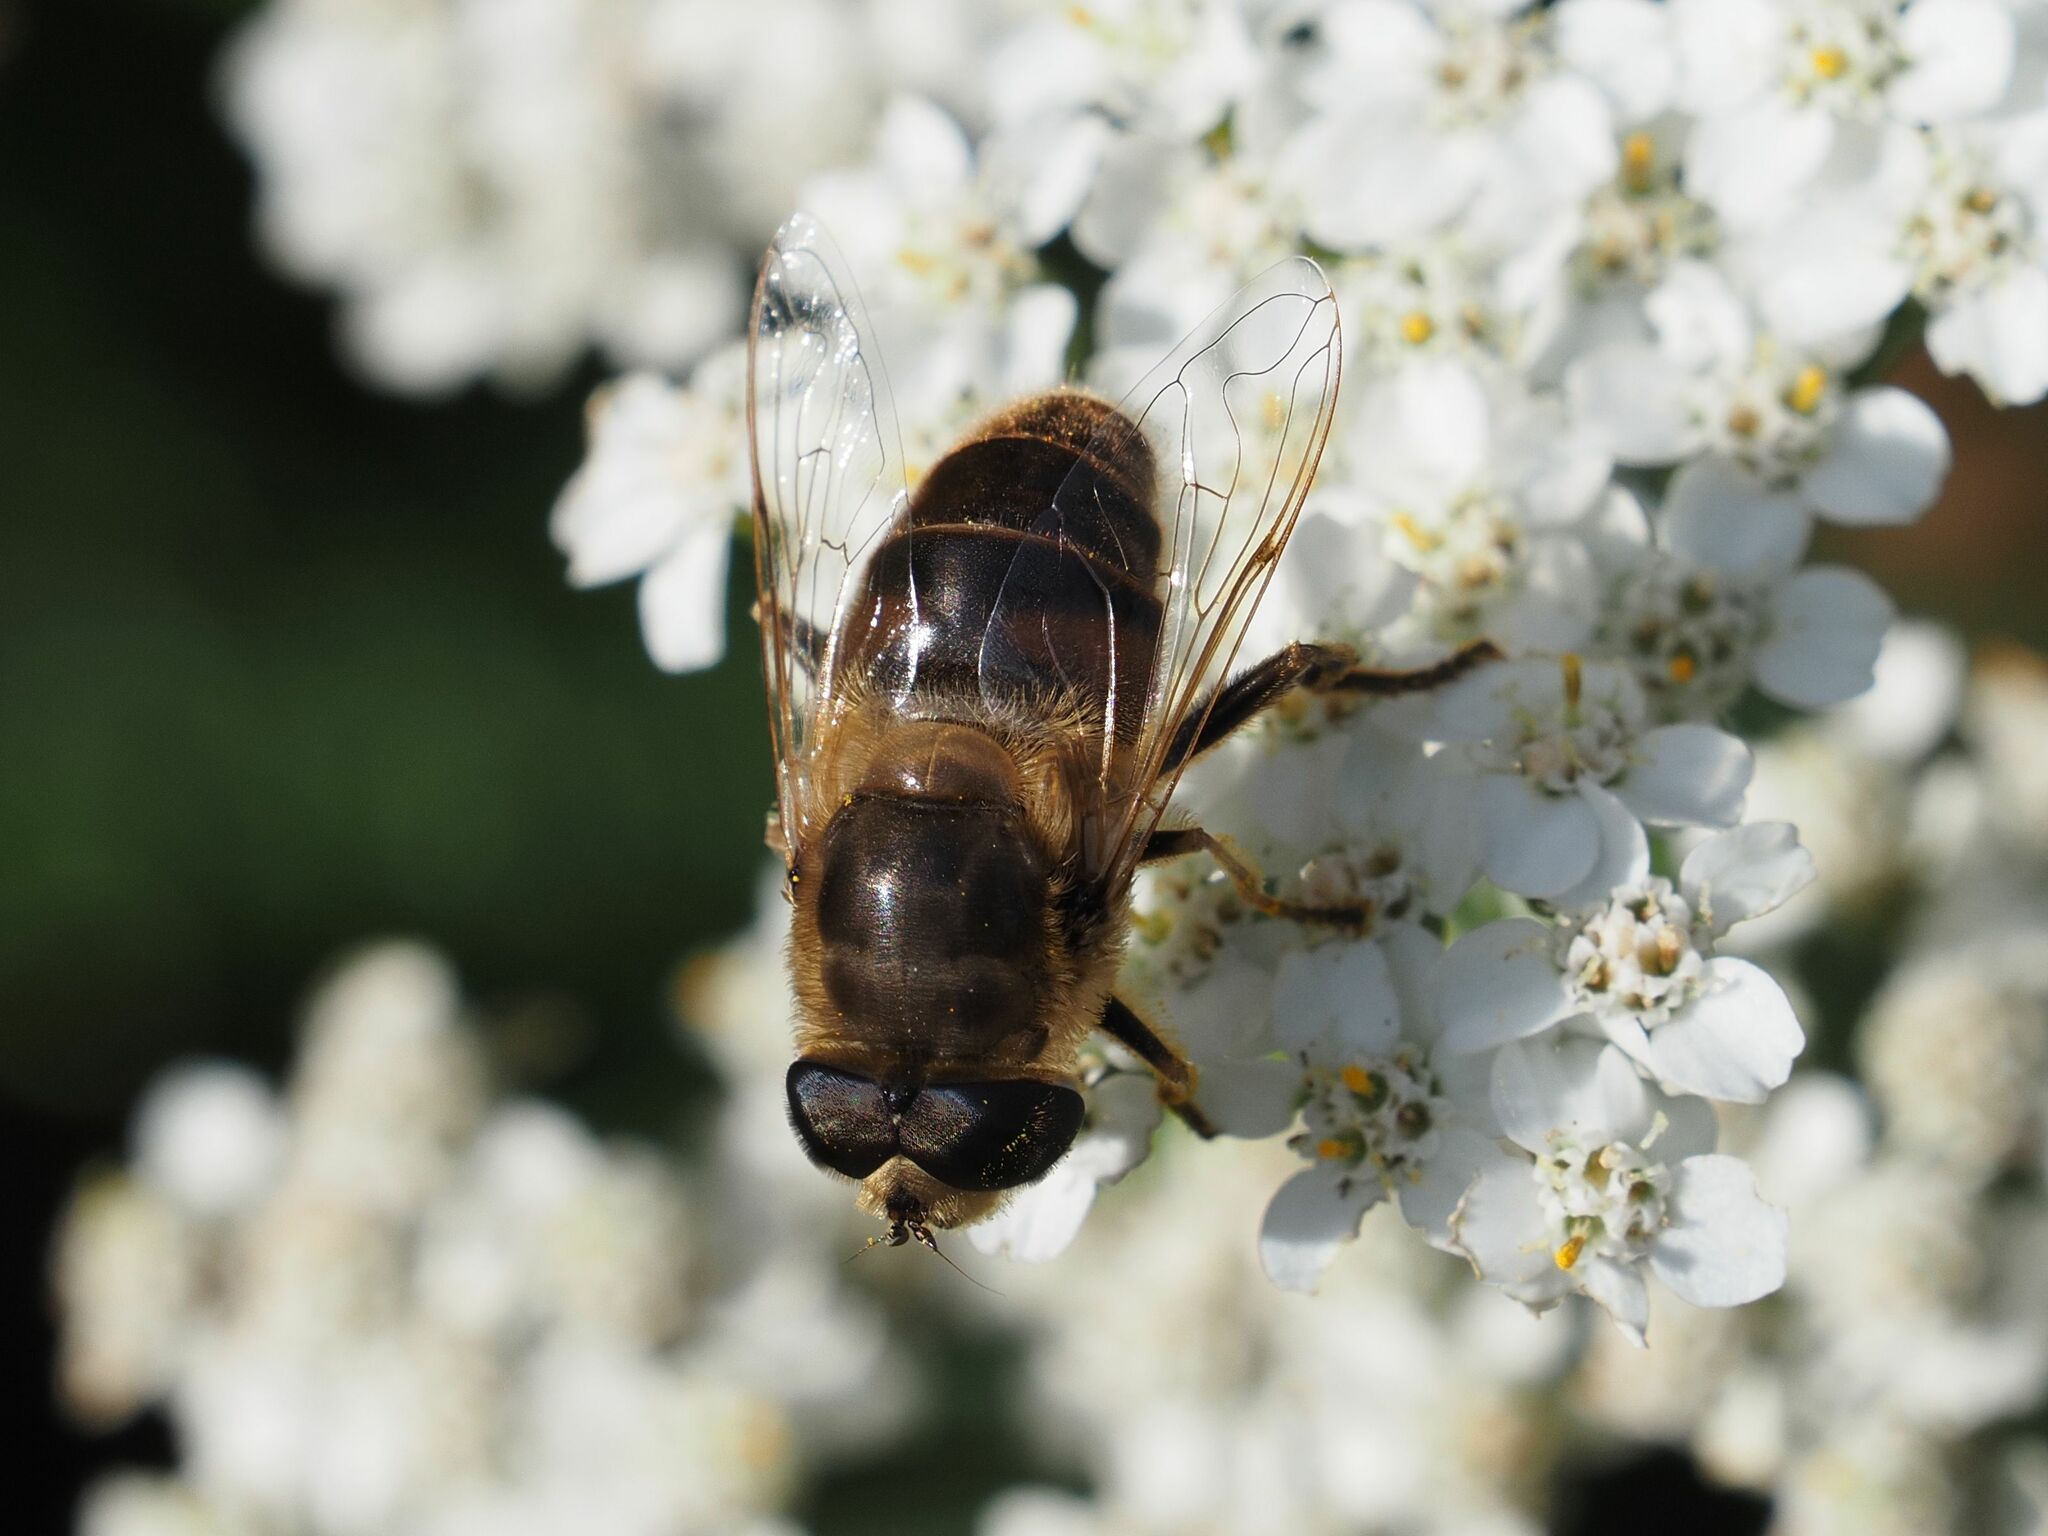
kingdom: Animalia
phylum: Arthropoda
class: Insecta
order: Diptera
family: Syrphidae
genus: Eristalis
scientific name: Eristalis tenax
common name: Drone fly
